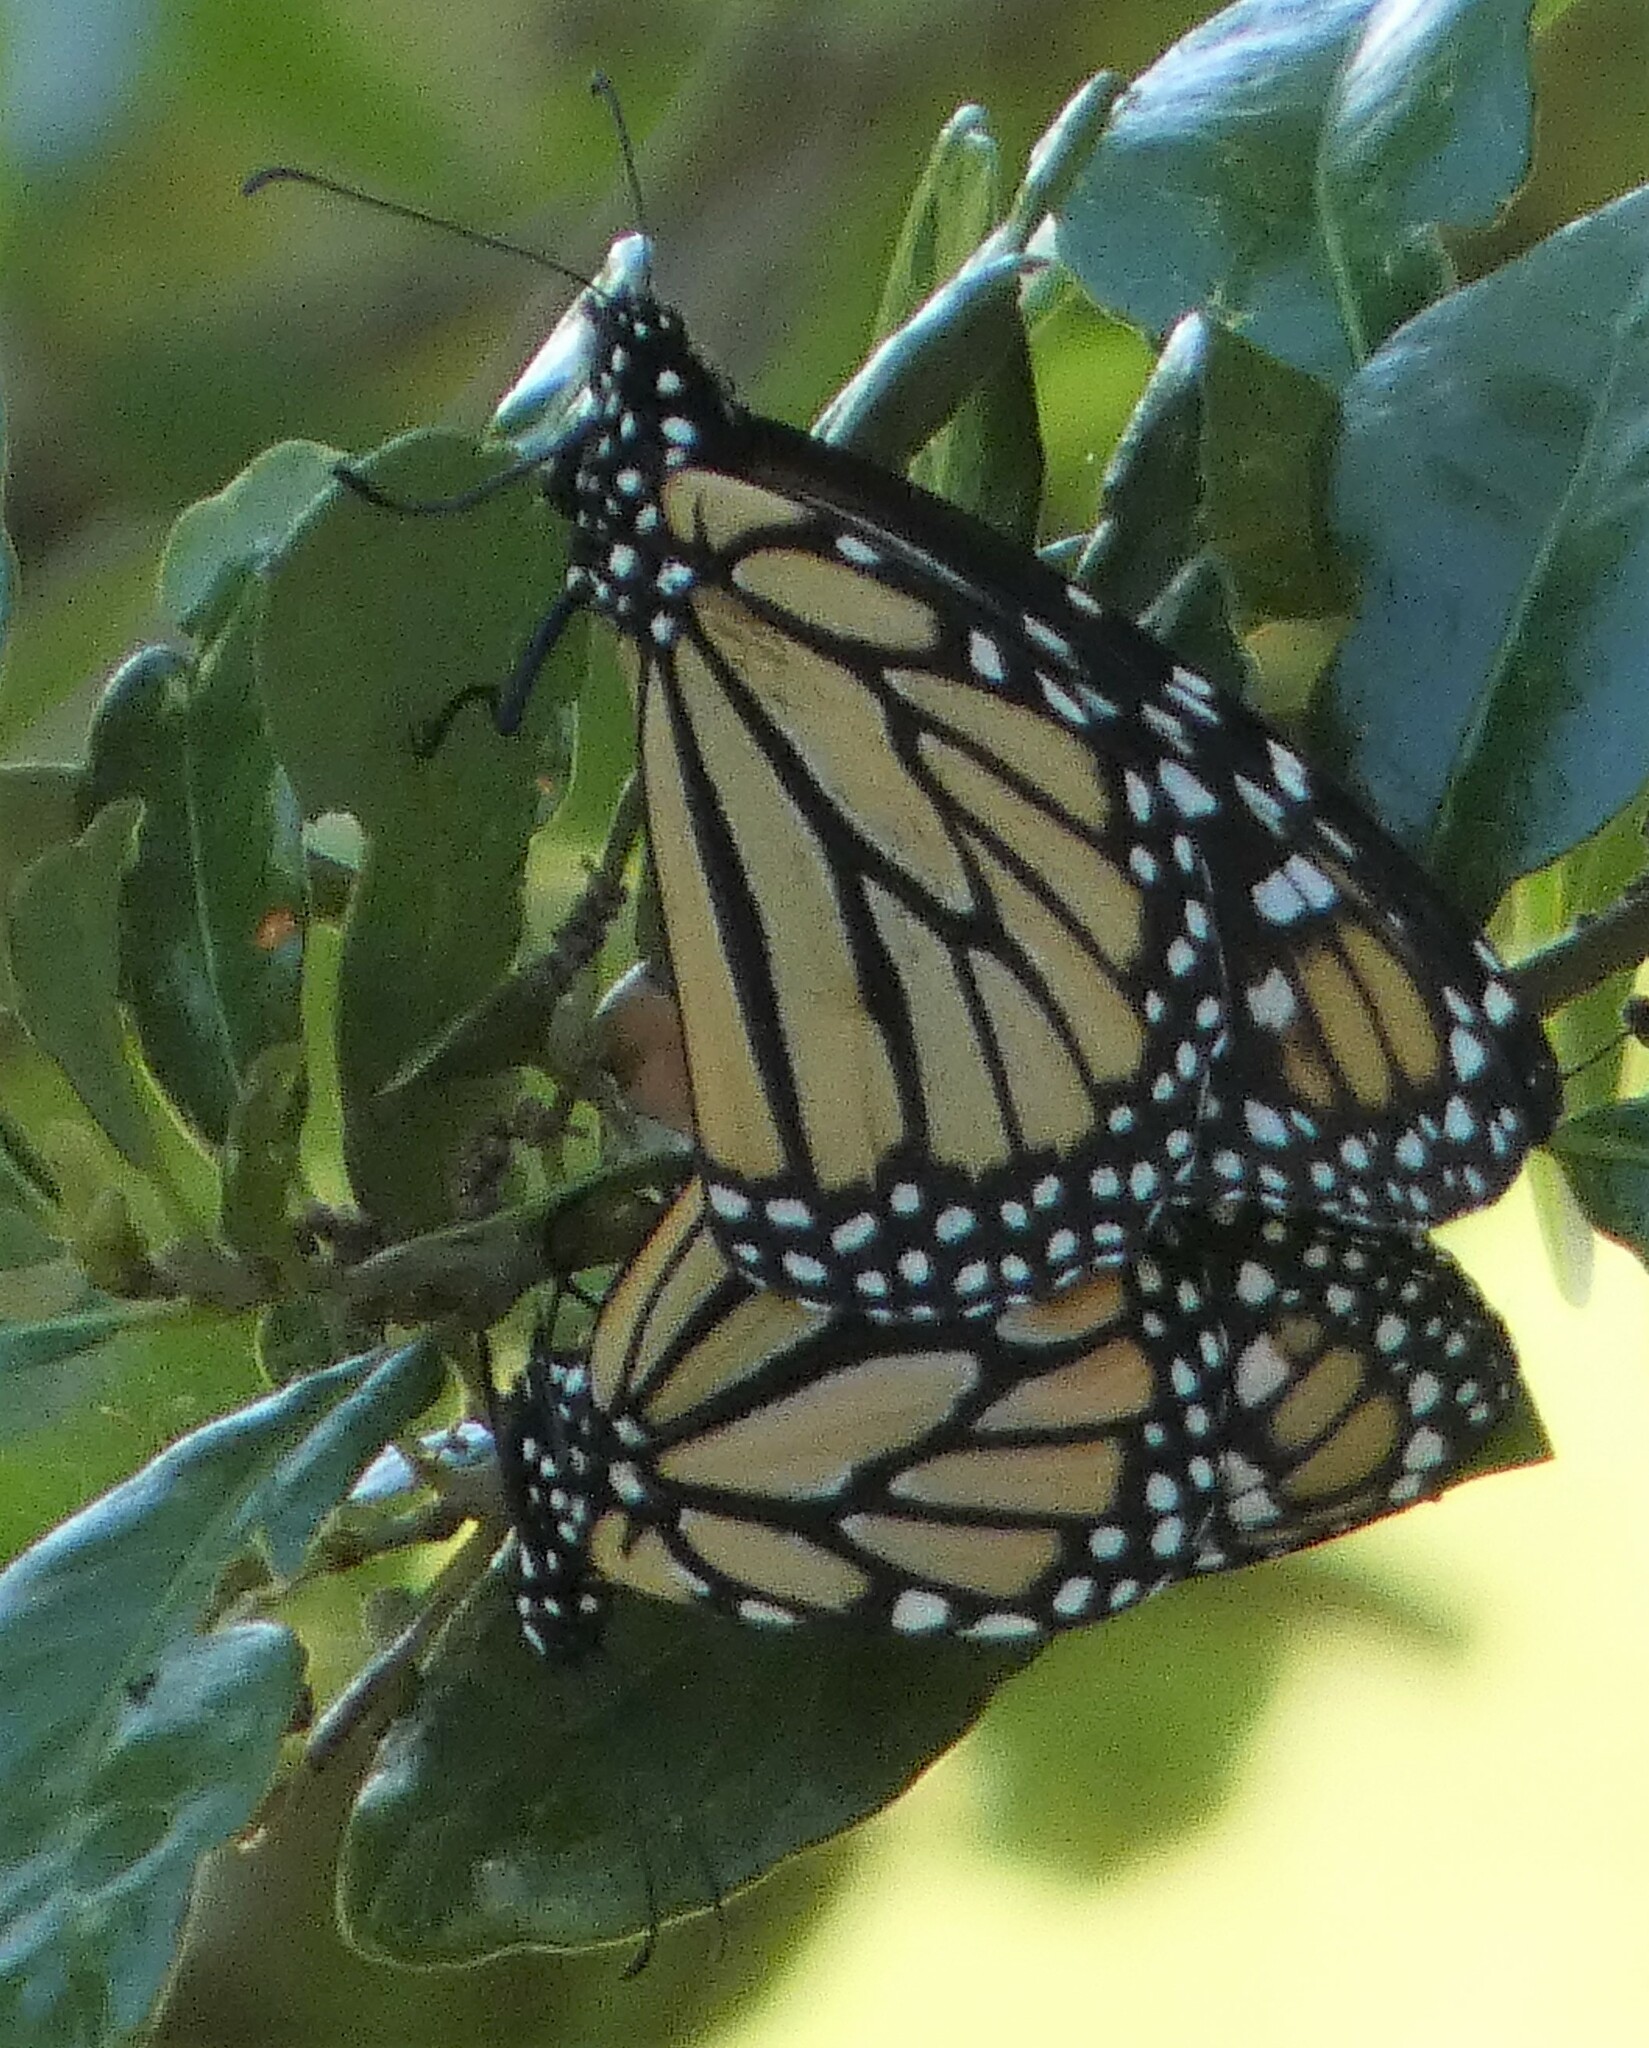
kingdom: Animalia
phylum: Arthropoda
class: Insecta
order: Lepidoptera
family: Nymphalidae
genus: Danaus
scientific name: Danaus plexippus
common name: Monarch
